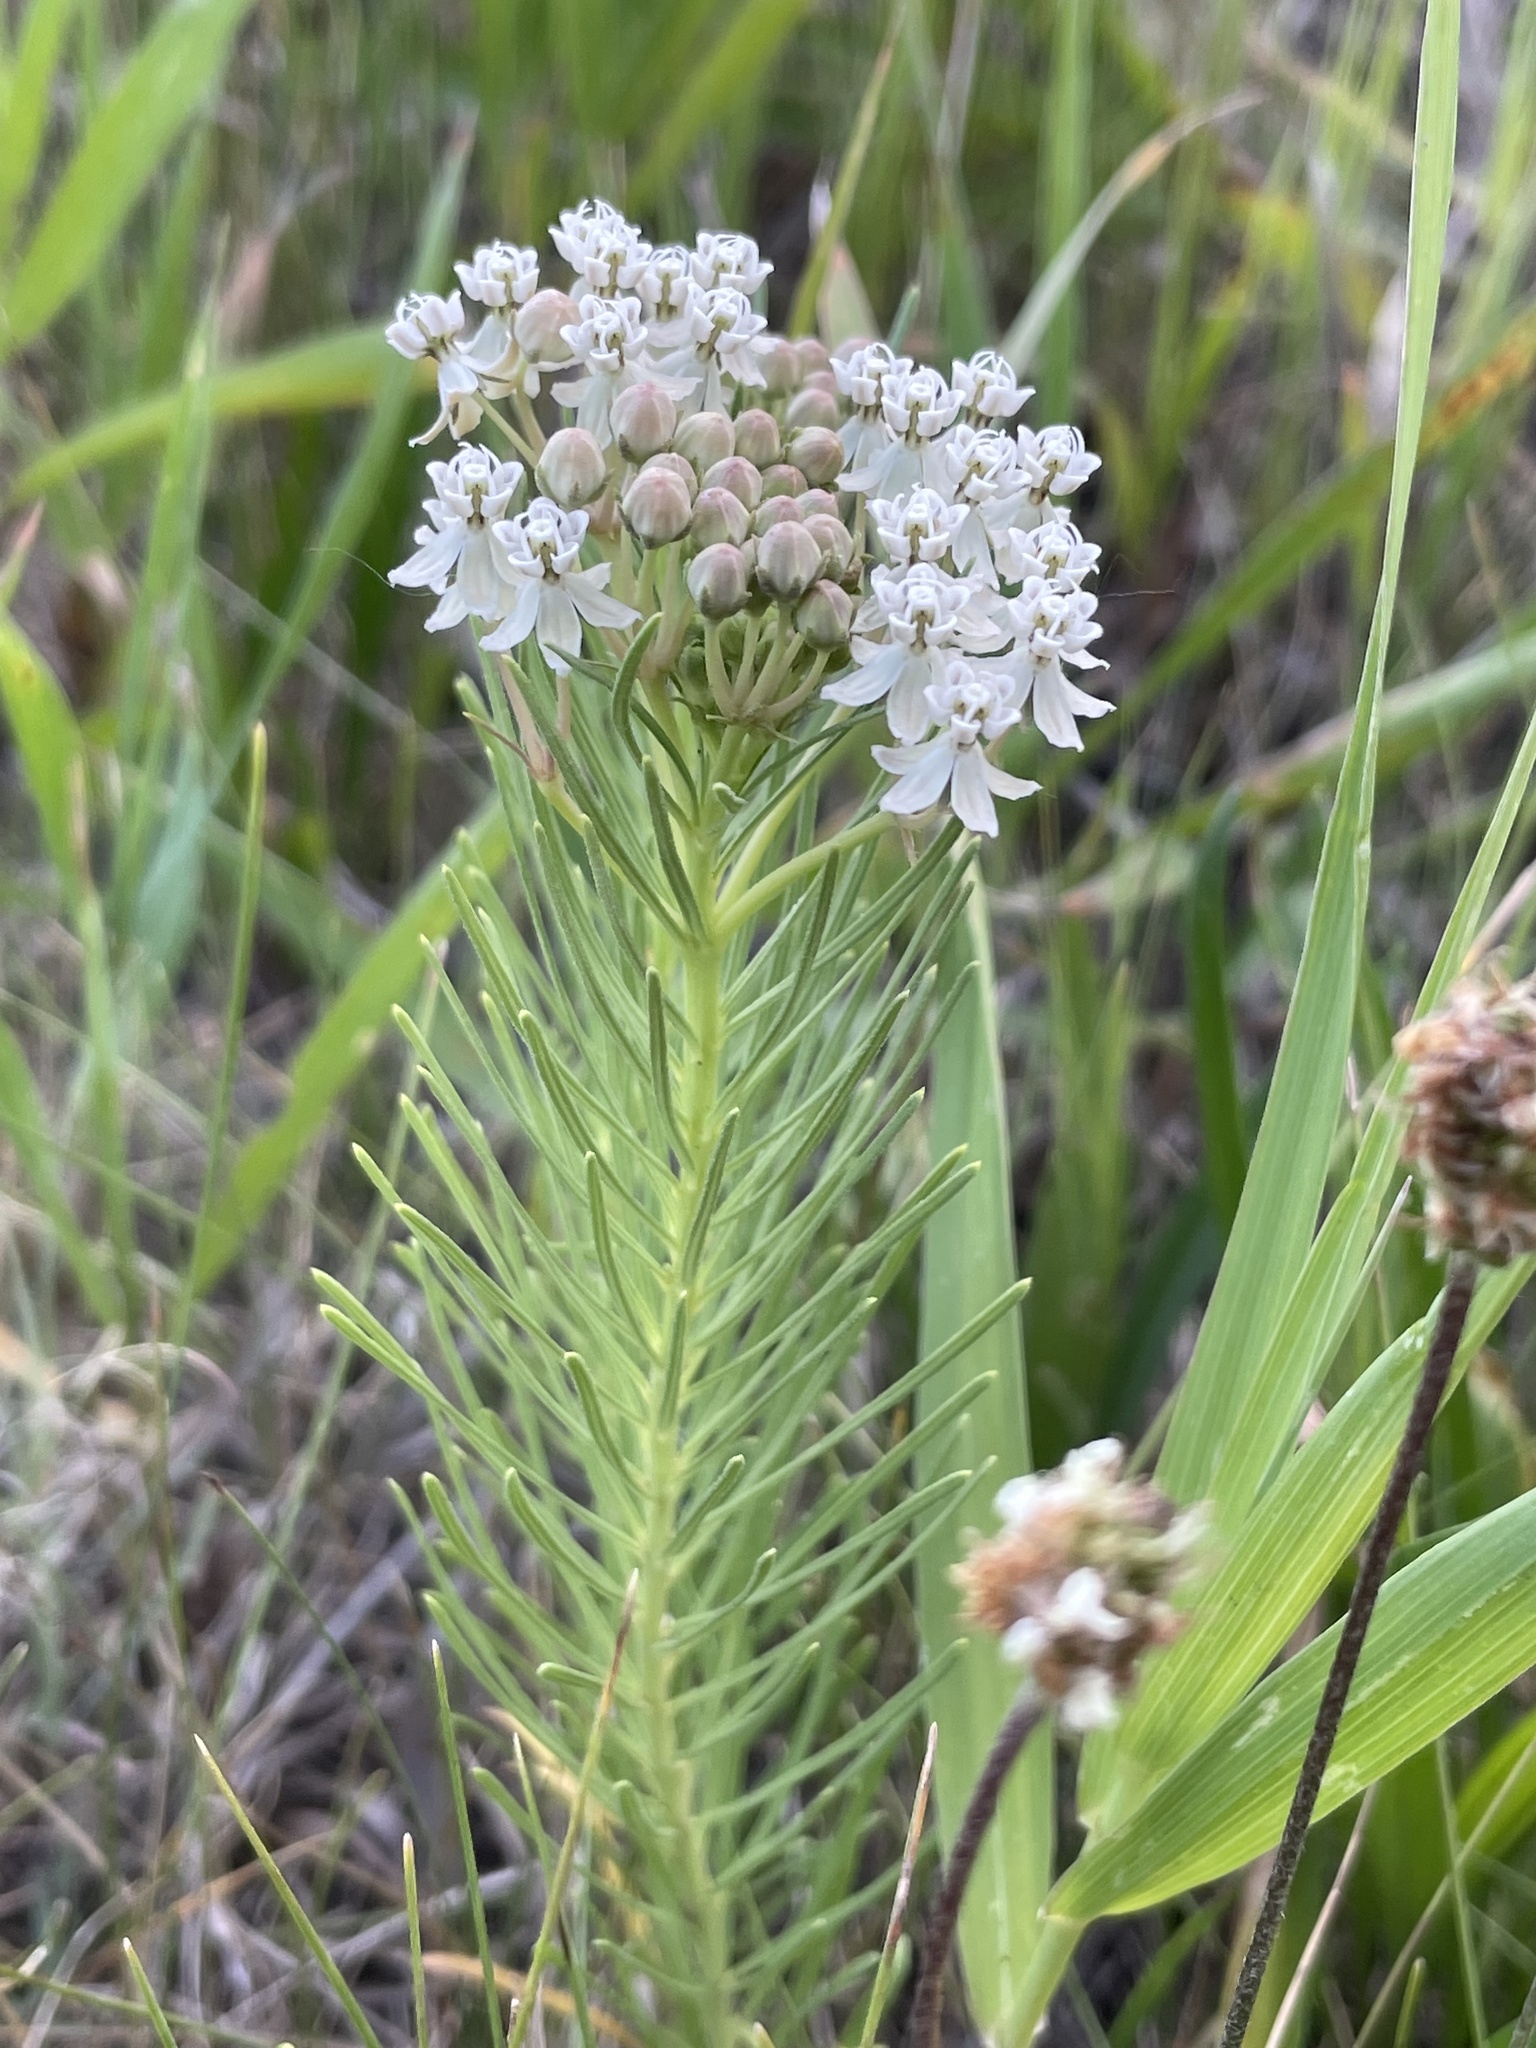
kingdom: Plantae
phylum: Tracheophyta
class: Magnoliopsida
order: Gentianales
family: Apocynaceae
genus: Asclepias
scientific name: Asclepias pumila
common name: Dwarf milkweed
